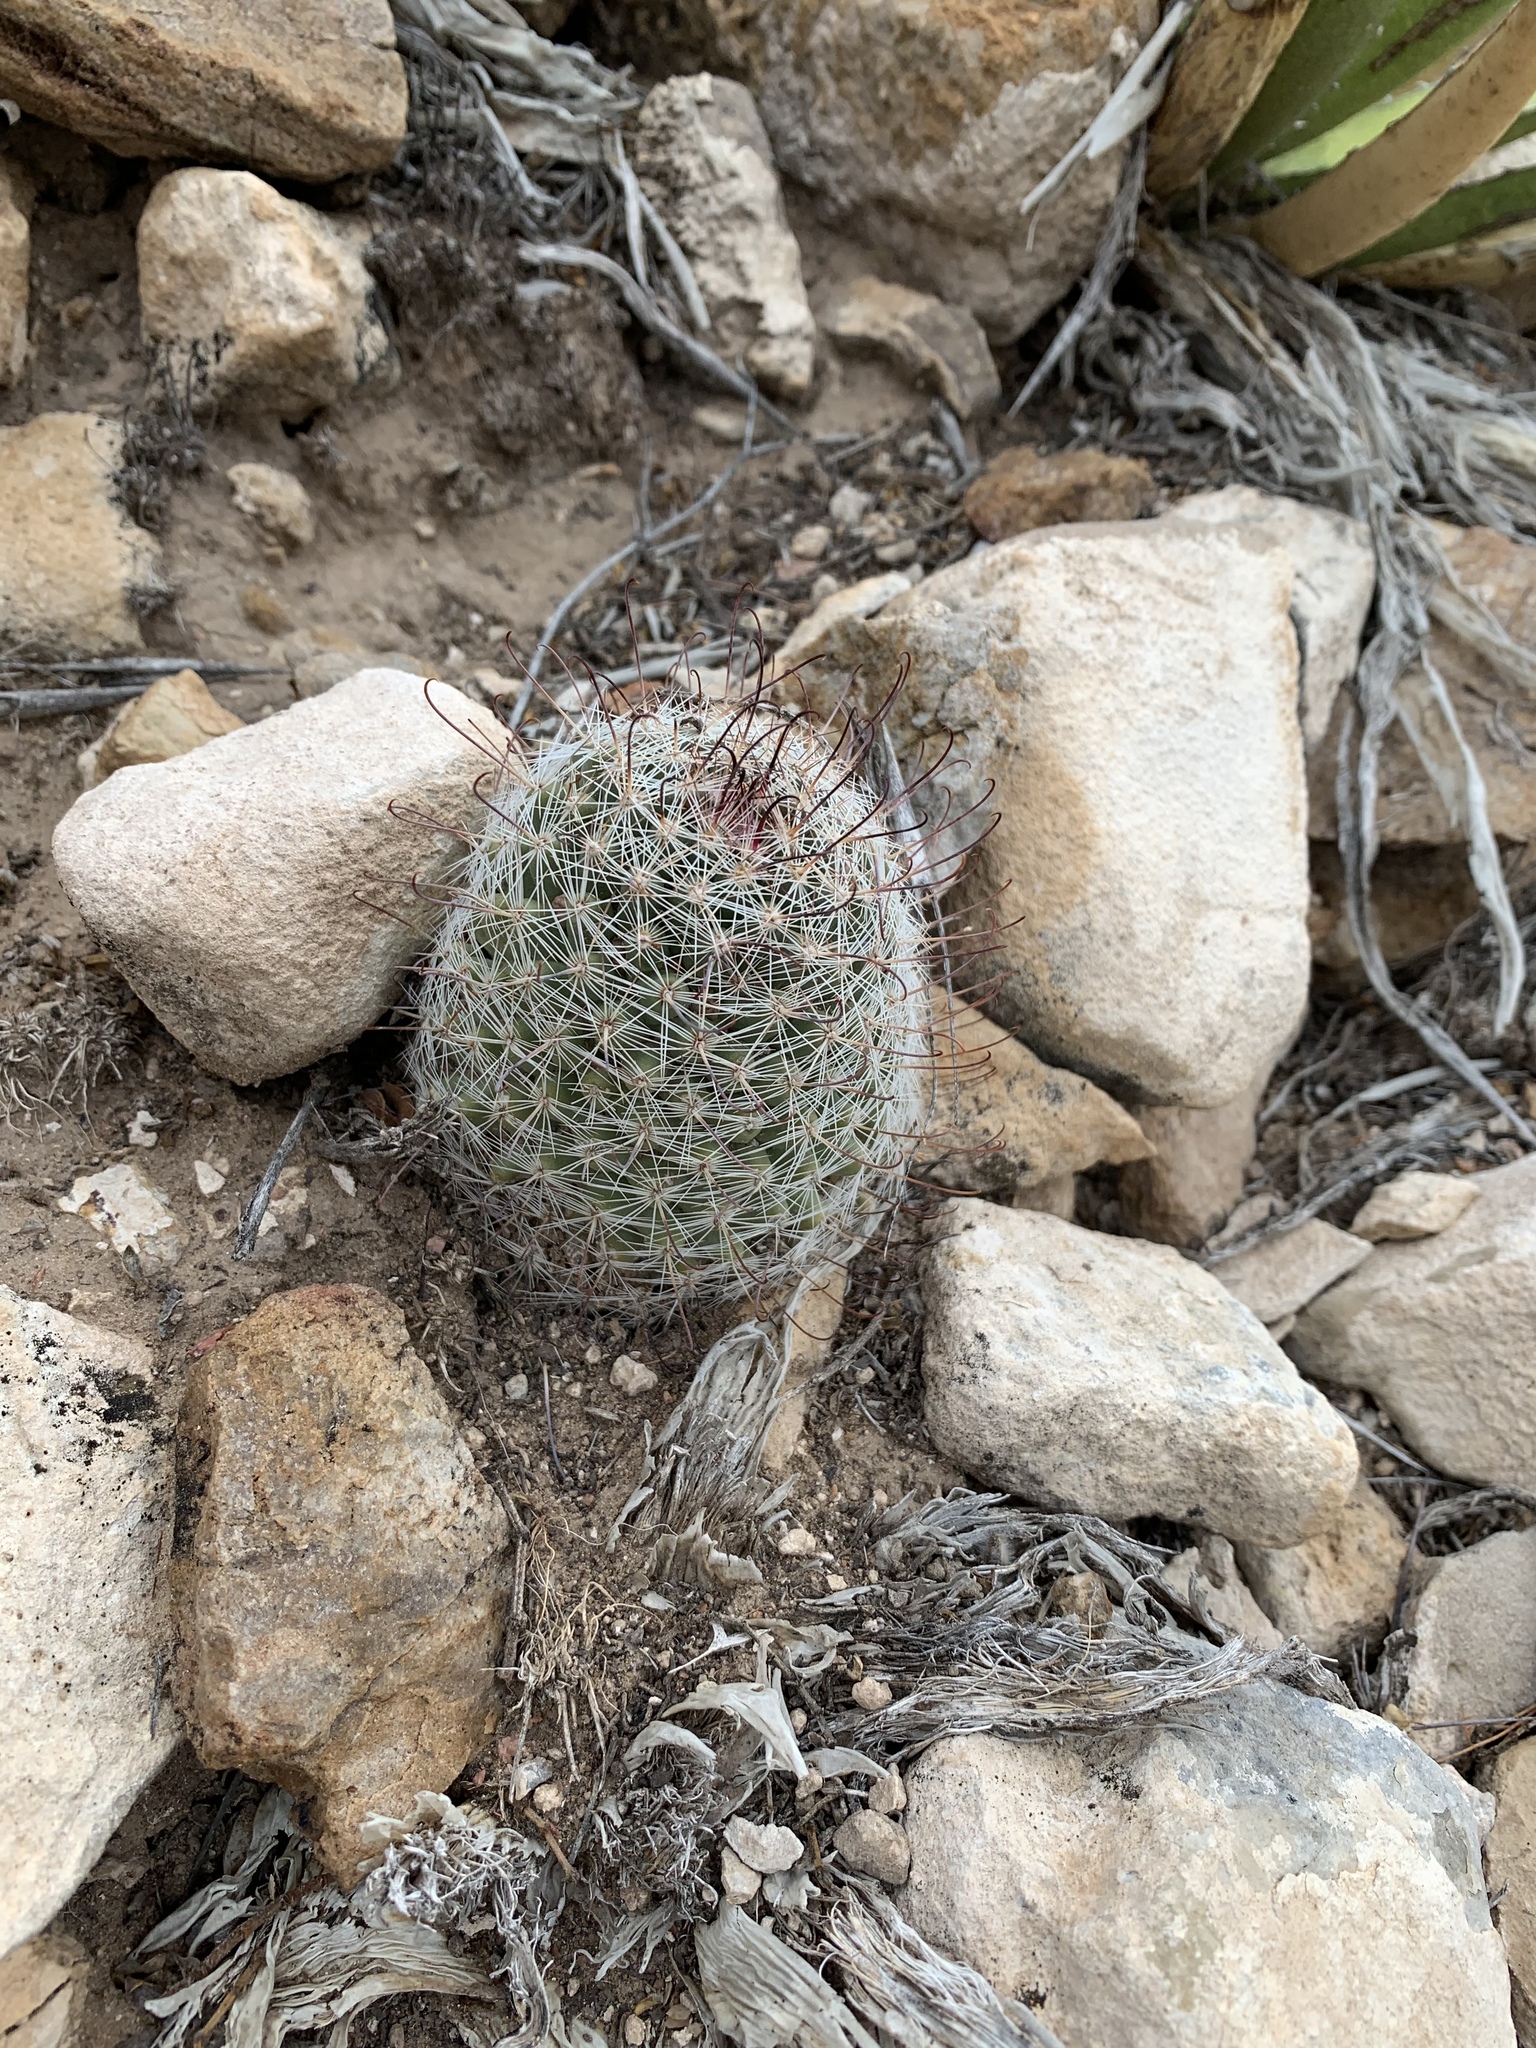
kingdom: Plantae
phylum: Tracheophyta
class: Magnoliopsida
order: Caryophyllales
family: Cactaceae
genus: Cochemiea
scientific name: Cochemiea grahamii
